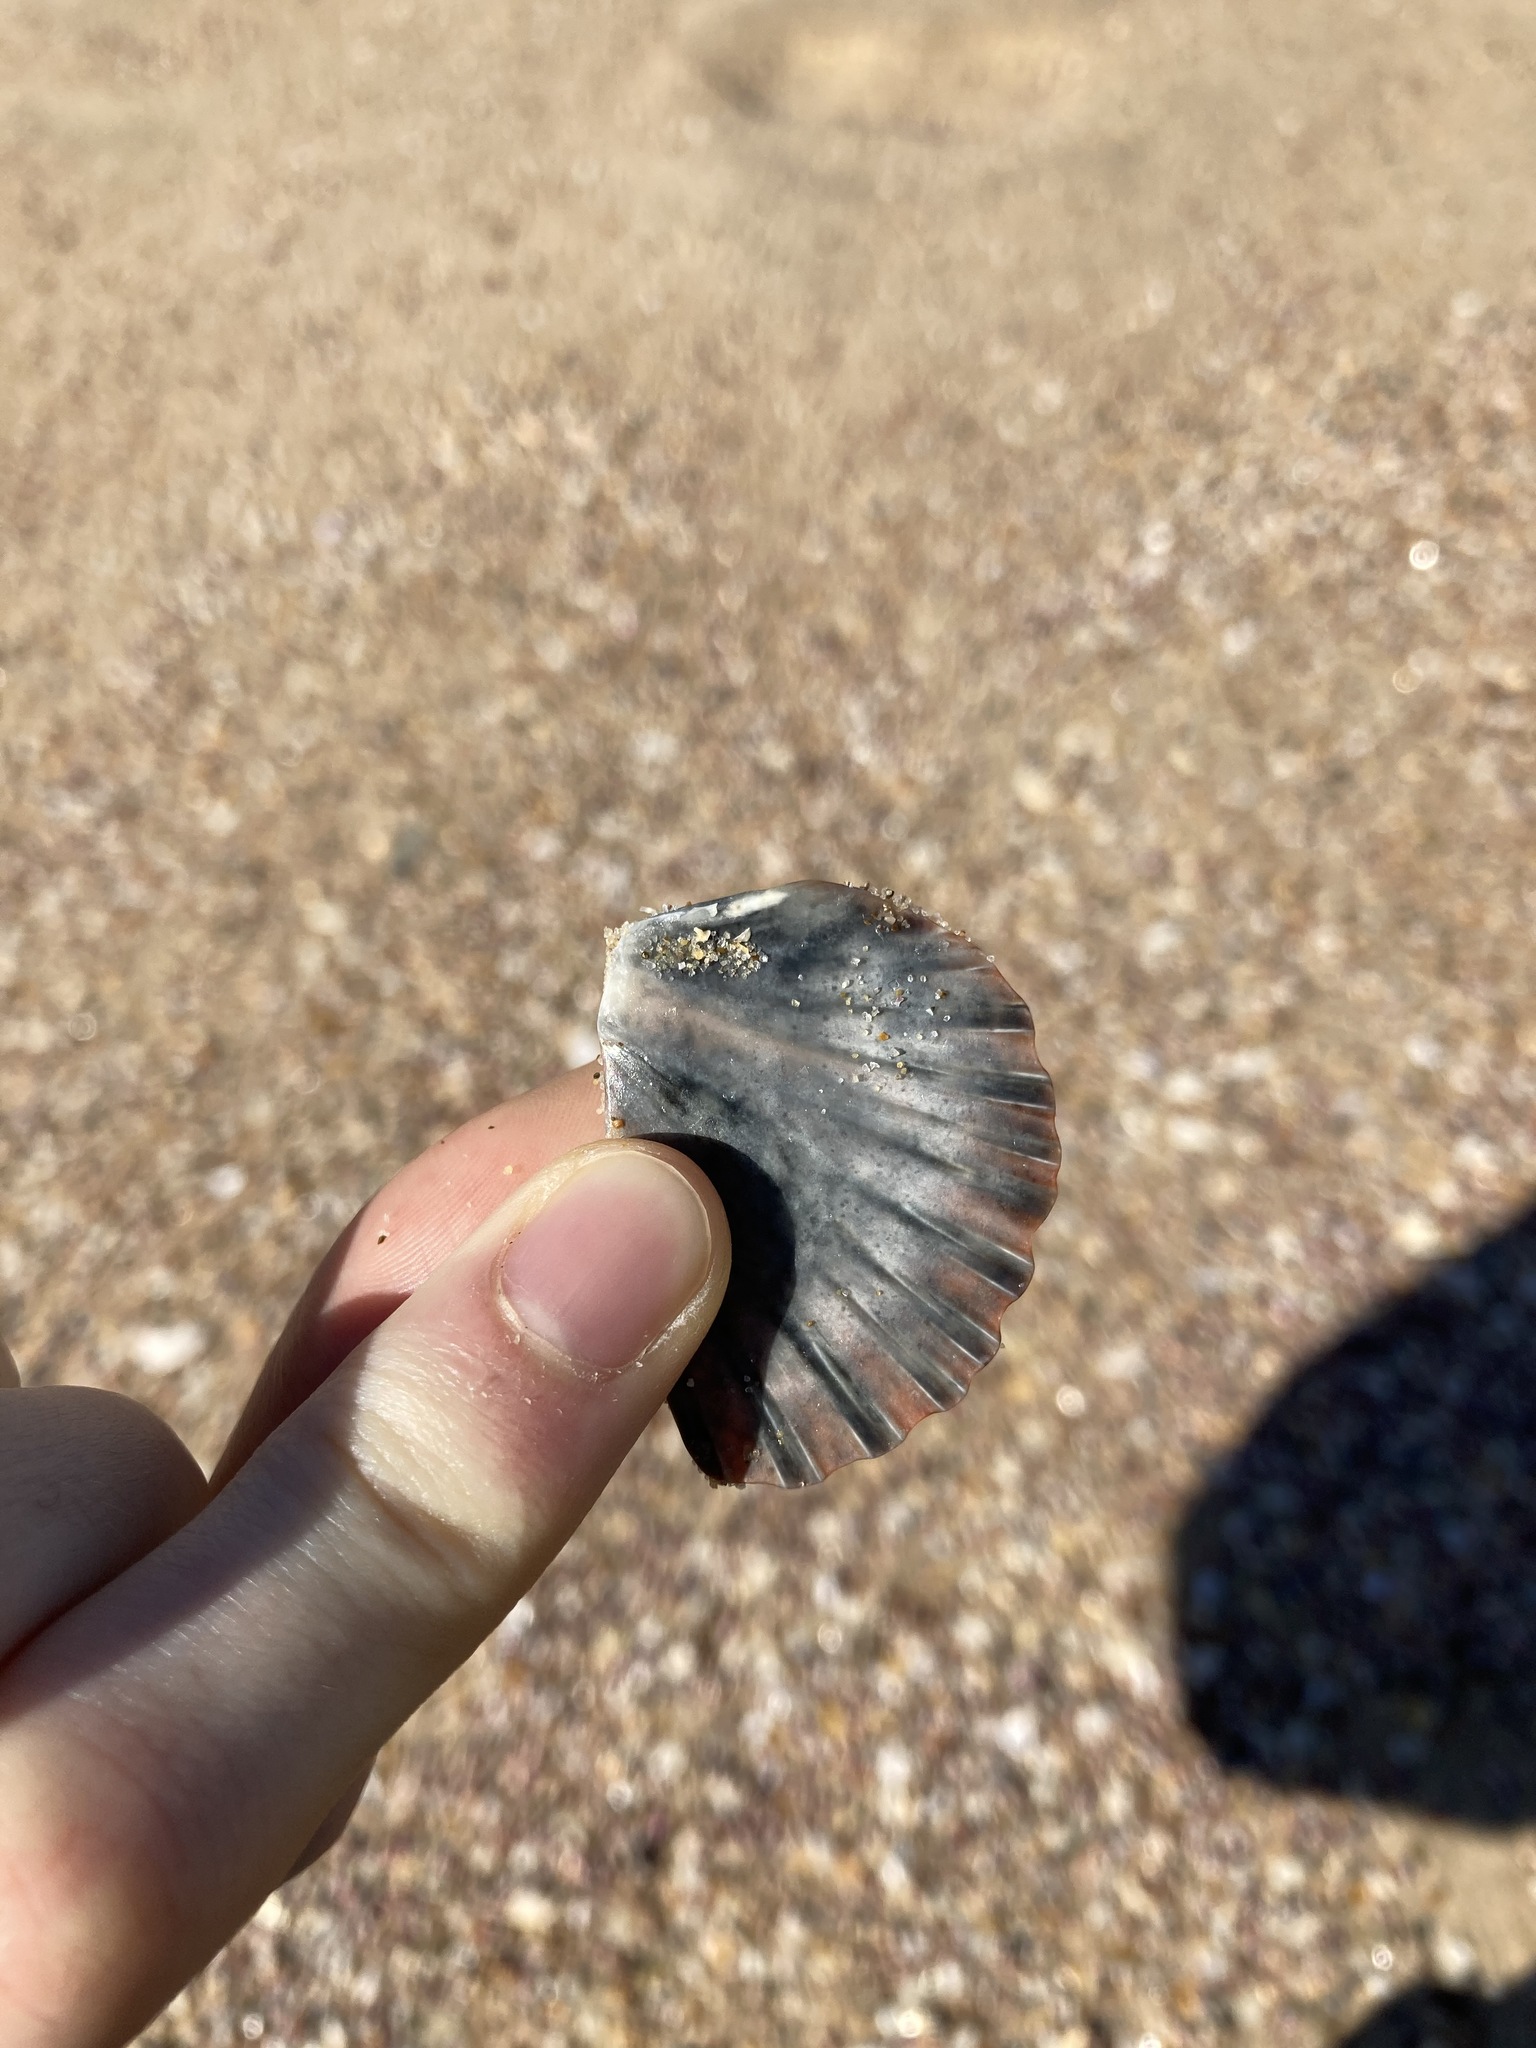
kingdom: Animalia
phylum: Mollusca
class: Bivalvia
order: Pectinida
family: Pectinidae
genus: Pecten
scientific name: Pecten fumatus
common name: Australian scallop
